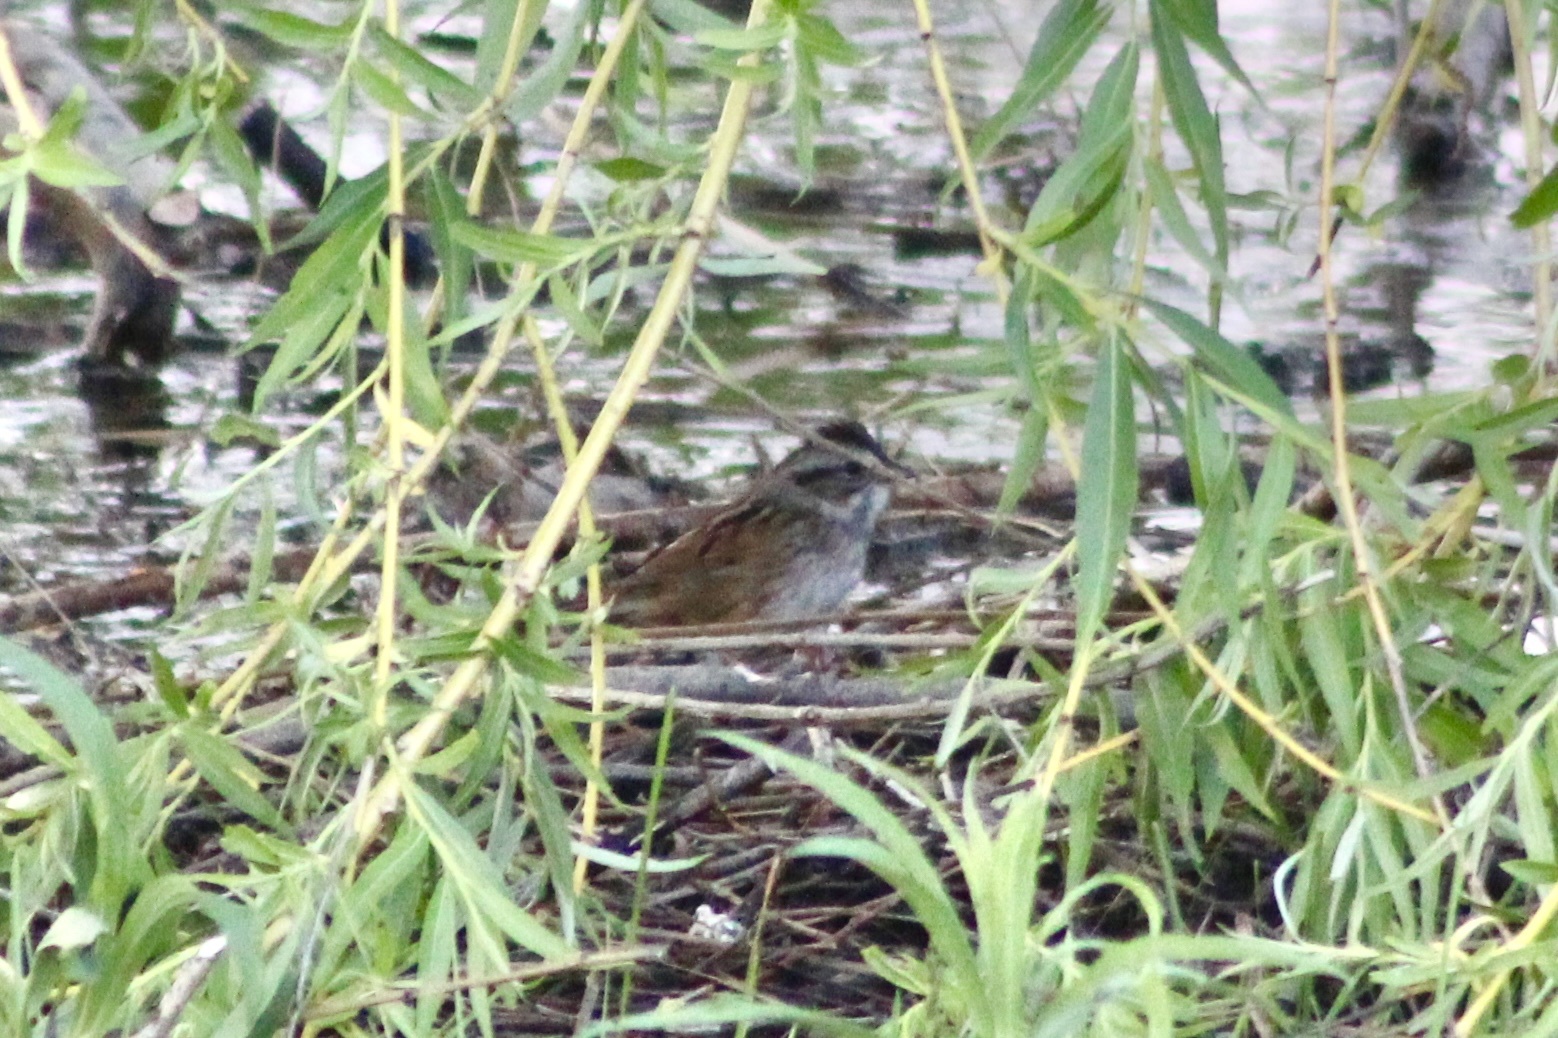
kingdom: Animalia
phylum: Chordata
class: Aves
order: Passeriformes
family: Passerellidae
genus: Melospiza
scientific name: Melospiza georgiana
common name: Swamp sparrow
